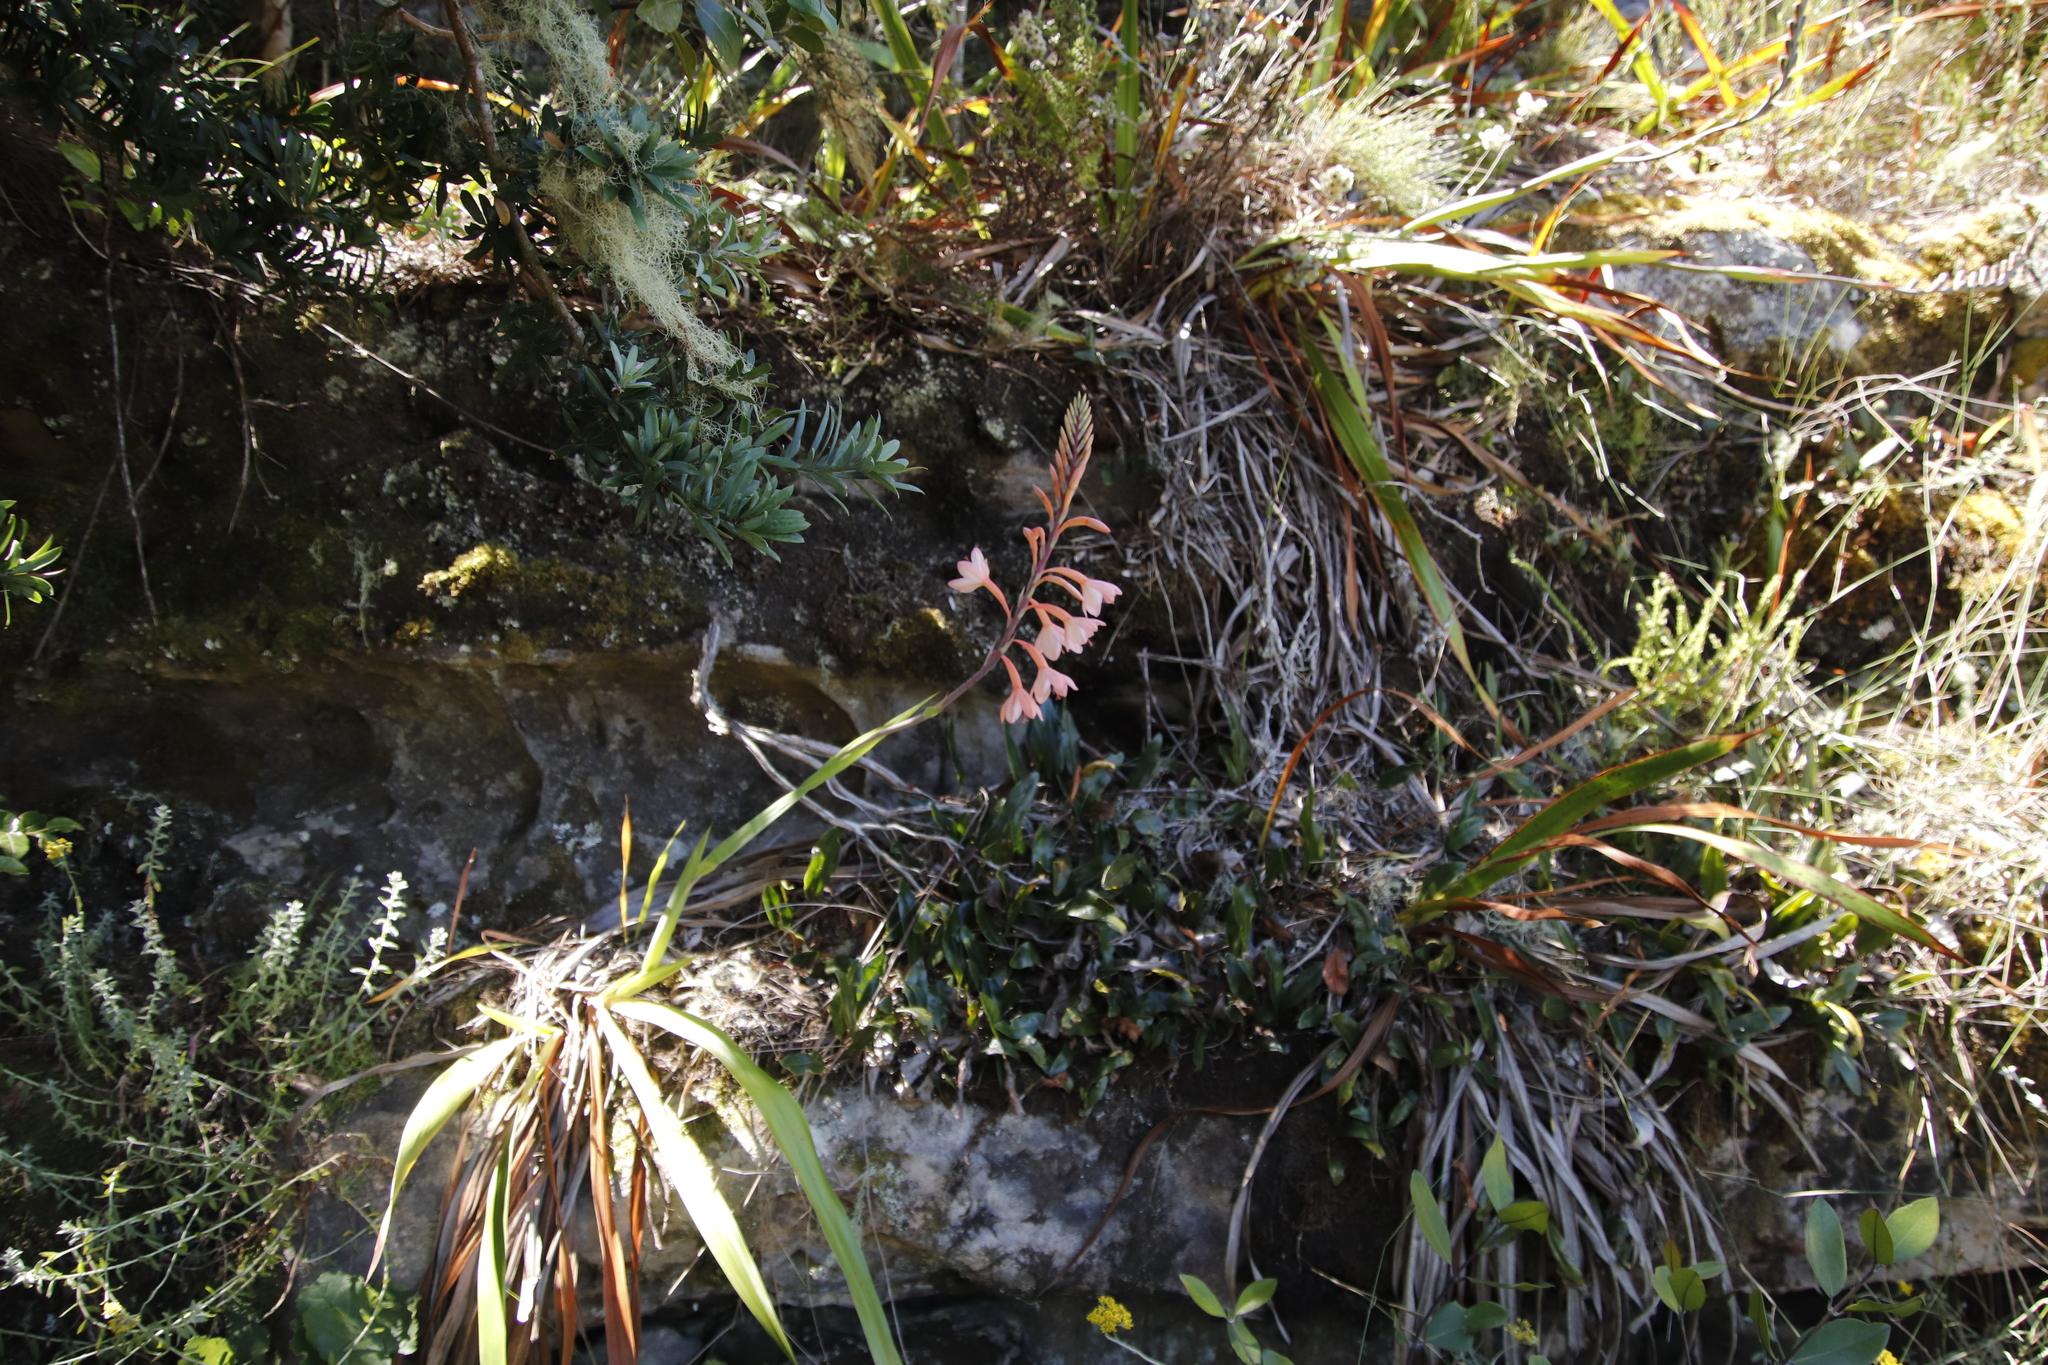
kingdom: Plantae
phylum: Tracheophyta
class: Liliopsida
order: Asparagales
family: Iridaceae
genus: Watsonia
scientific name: Watsonia tabularis
